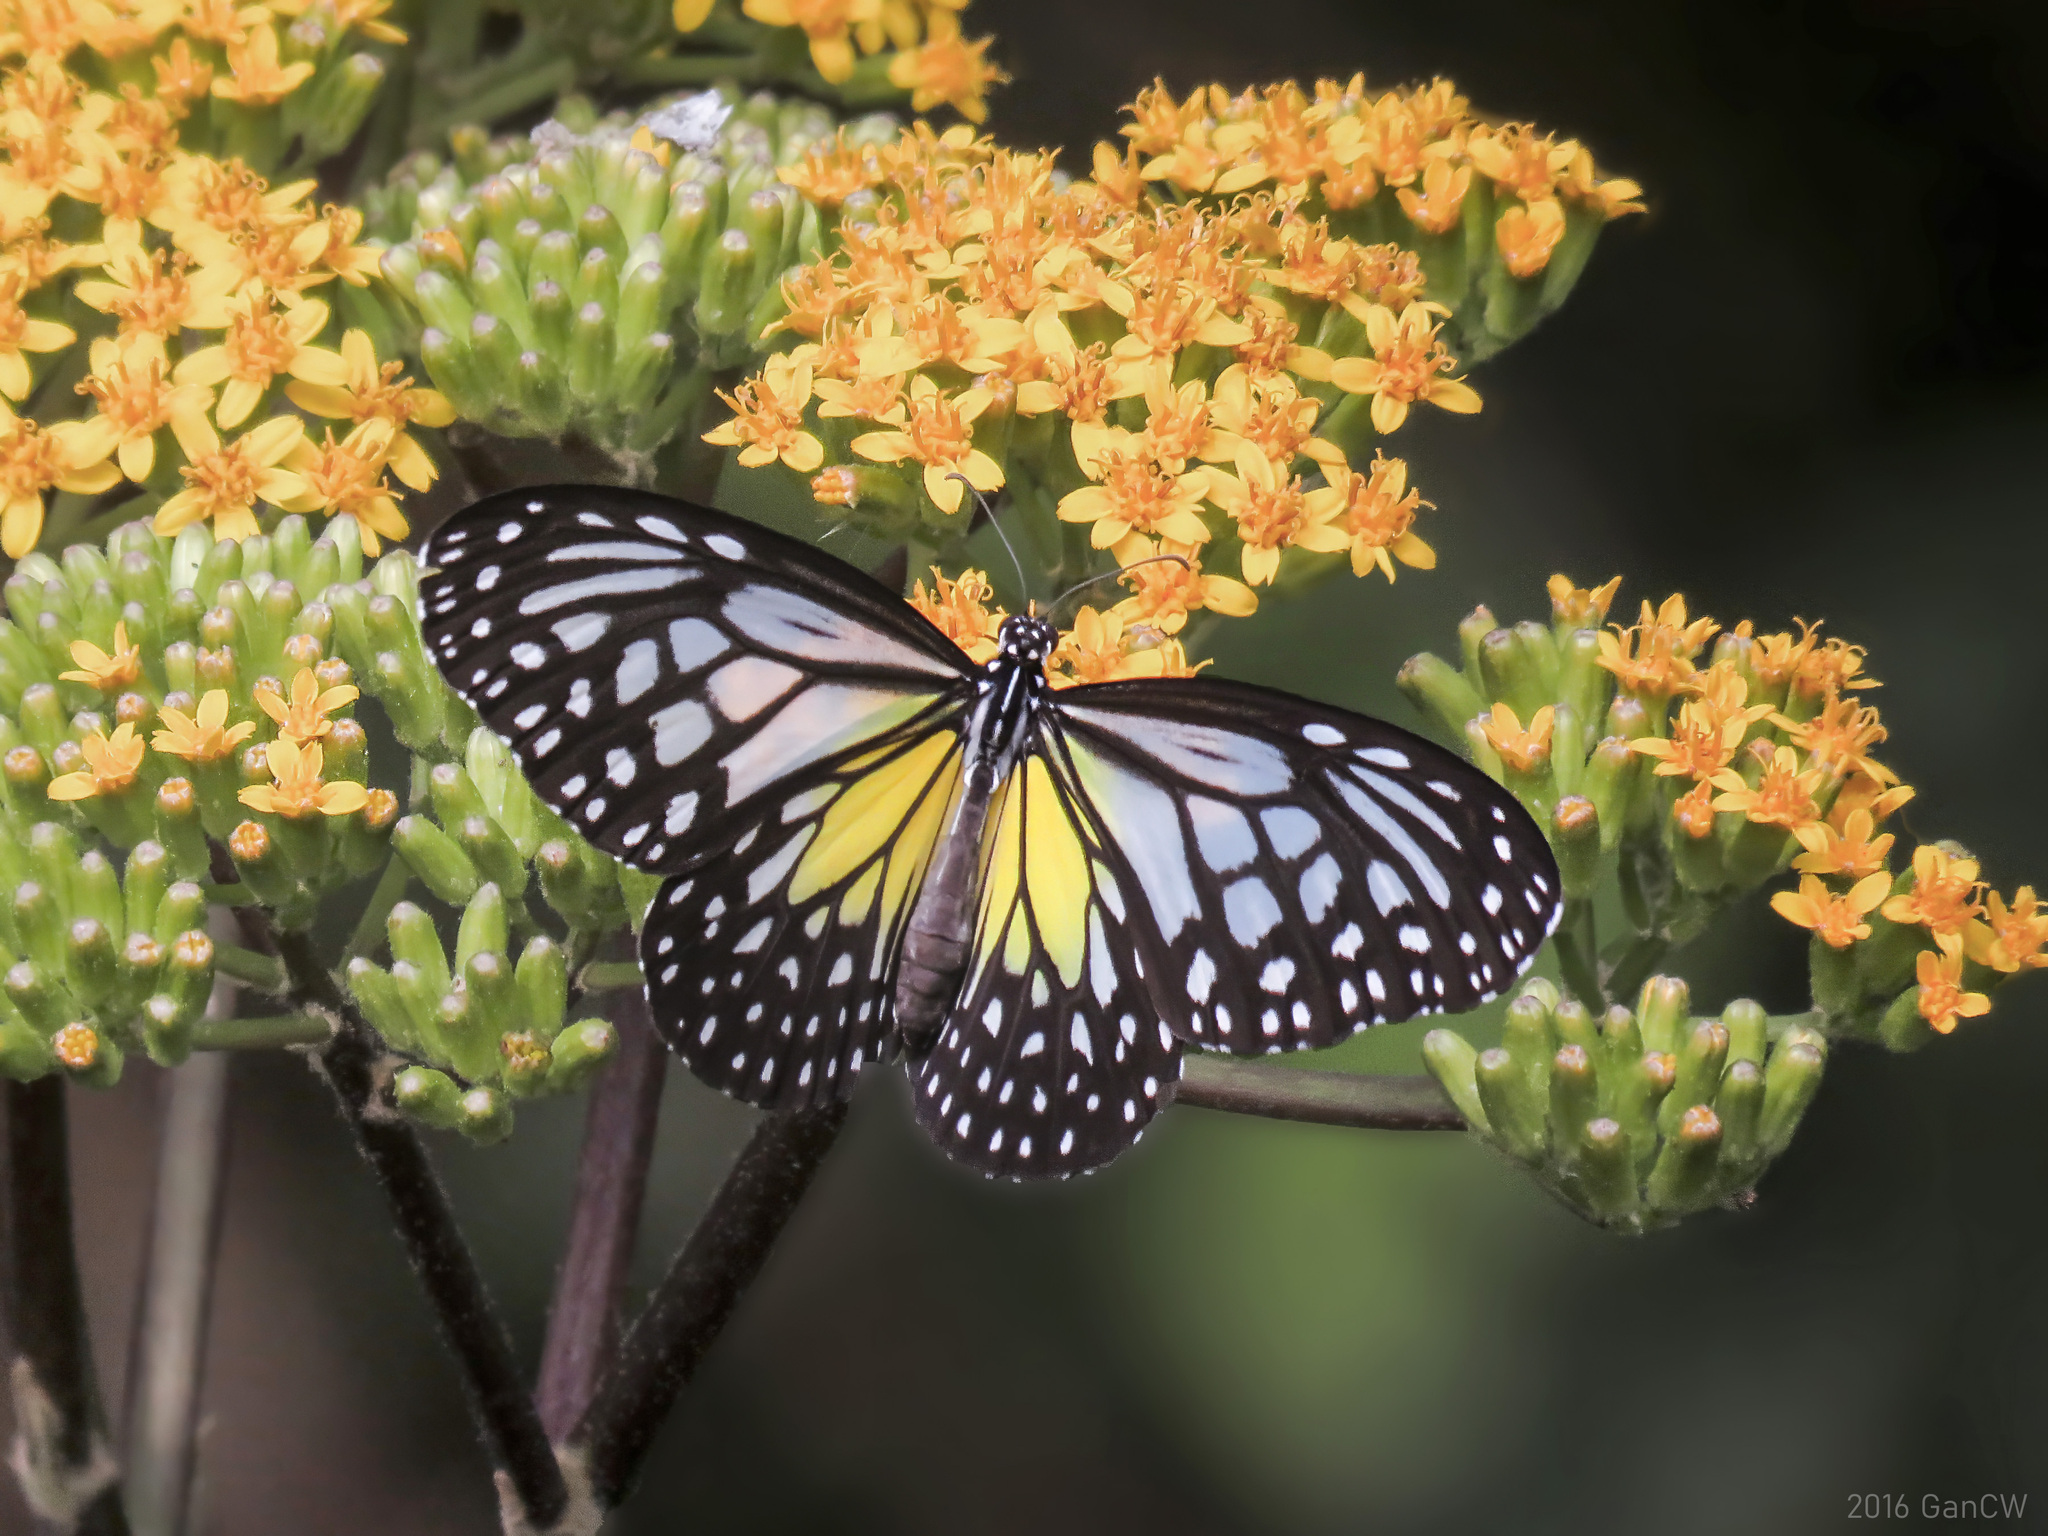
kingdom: Animalia
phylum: Arthropoda
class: Insecta
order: Lepidoptera
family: Nymphalidae
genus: Parantica
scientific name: Parantica aspasia
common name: Yellow glassy tiger
